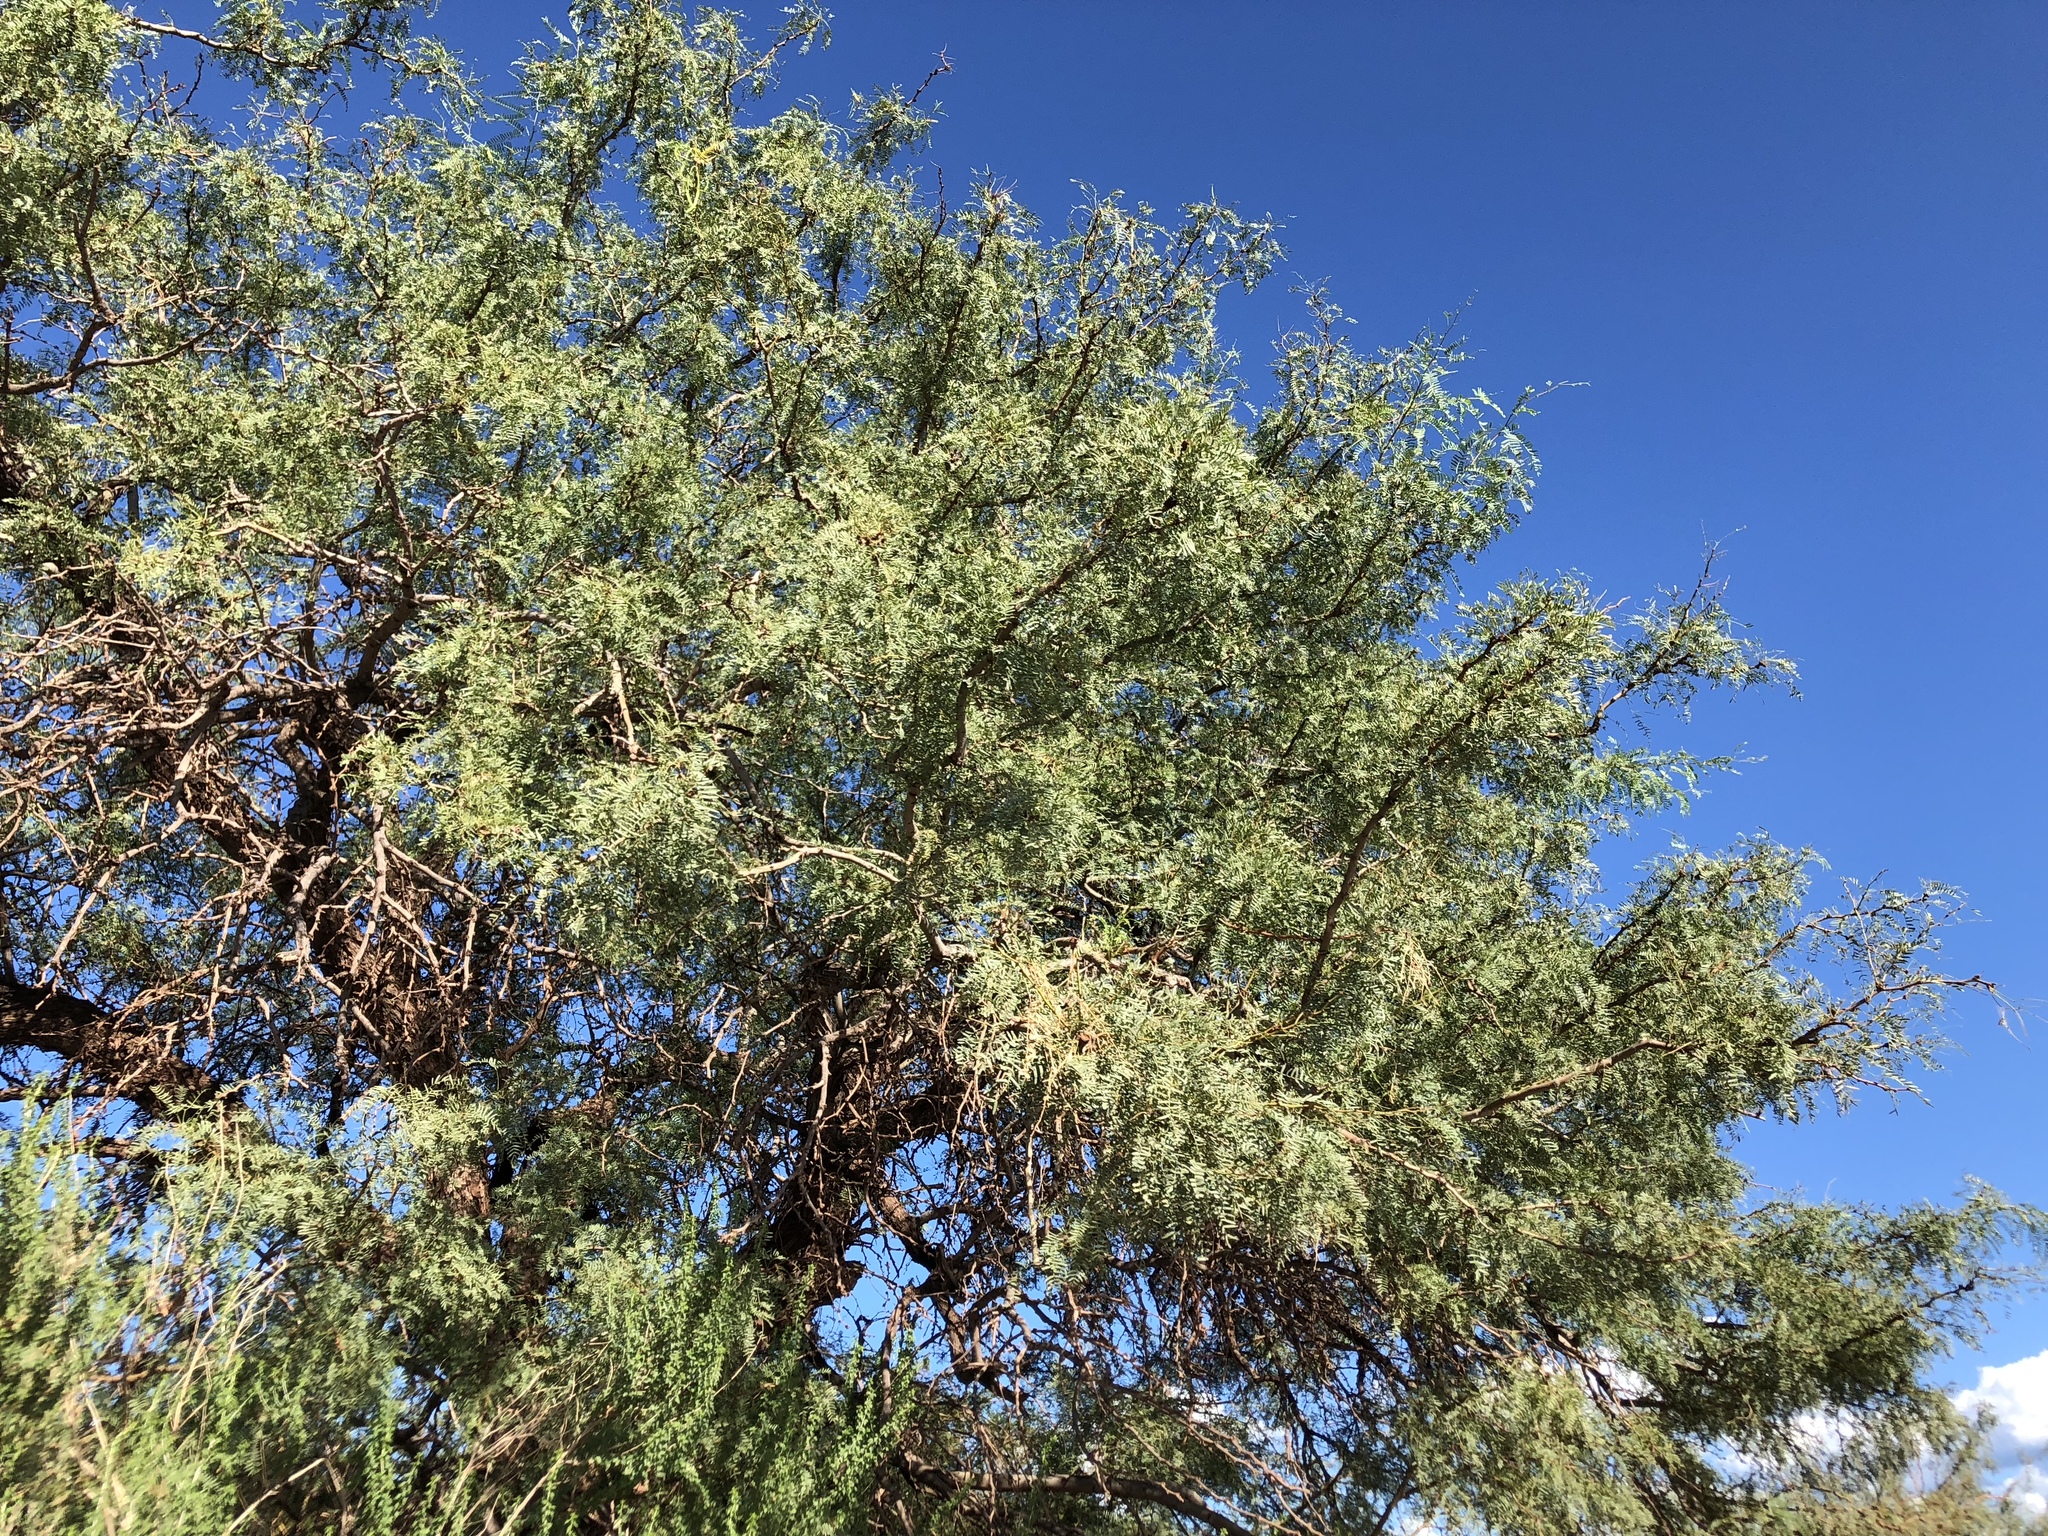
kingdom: Plantae
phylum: Tracheophyta
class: Magnoliopsida
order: Fabales
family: Fabaceae
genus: Prosopis
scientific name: Prosopis glandulosa
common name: Honey mesquite
